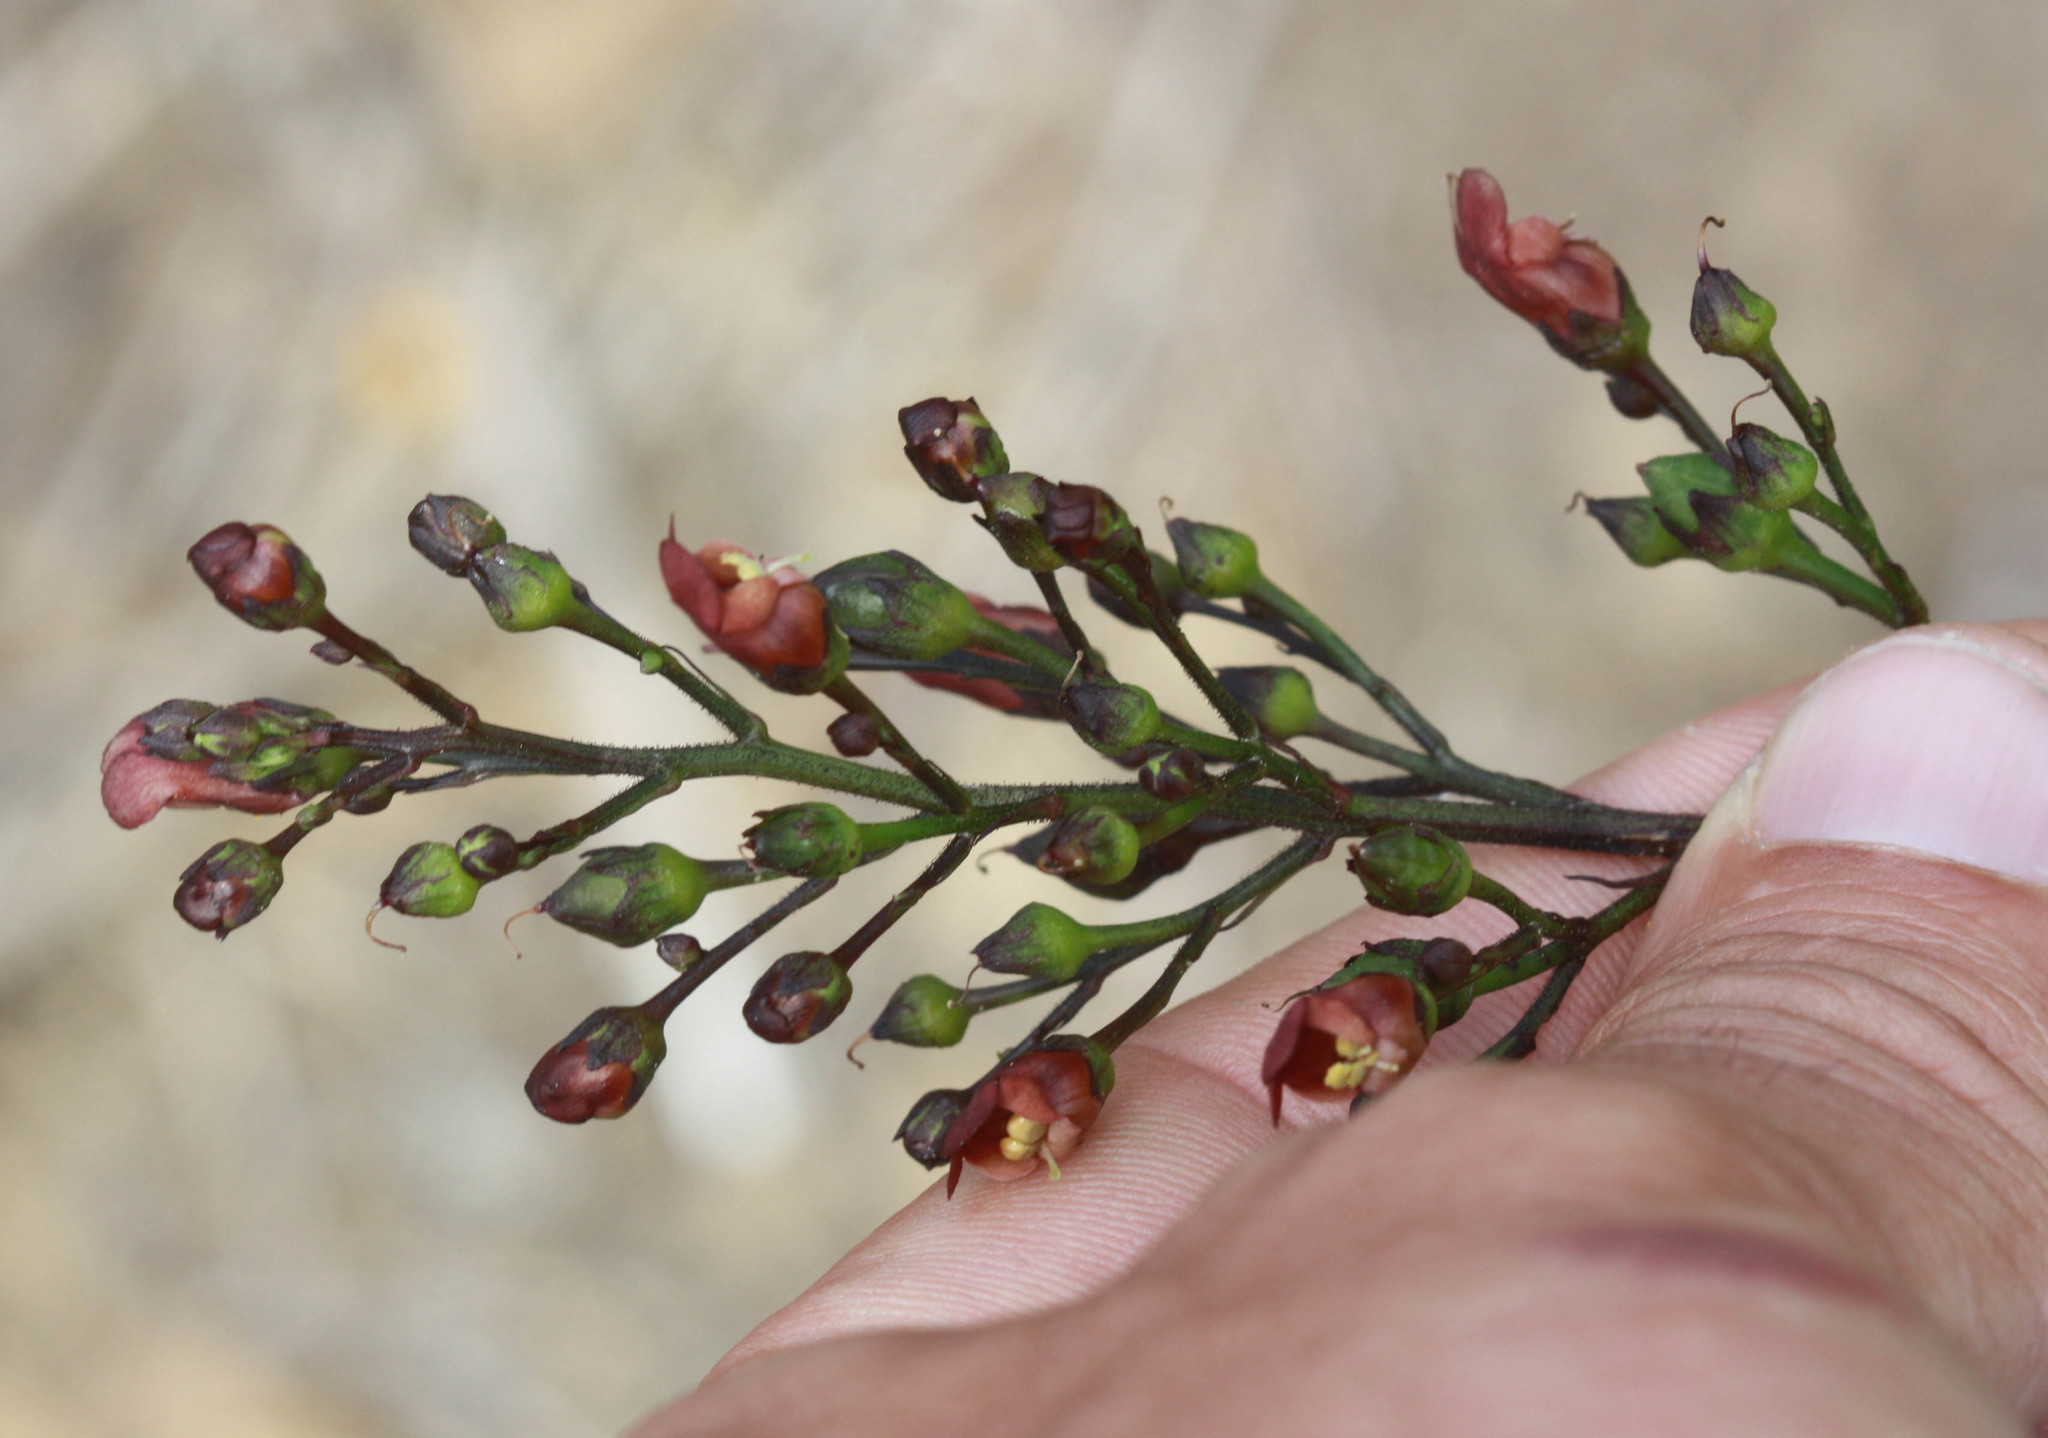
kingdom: Plantae
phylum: Tracheophyta
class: Magnoliopsida
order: Lamiales
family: Scrophulariaceae
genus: Scrophularia
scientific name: Scrophularia californica
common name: California figwort
